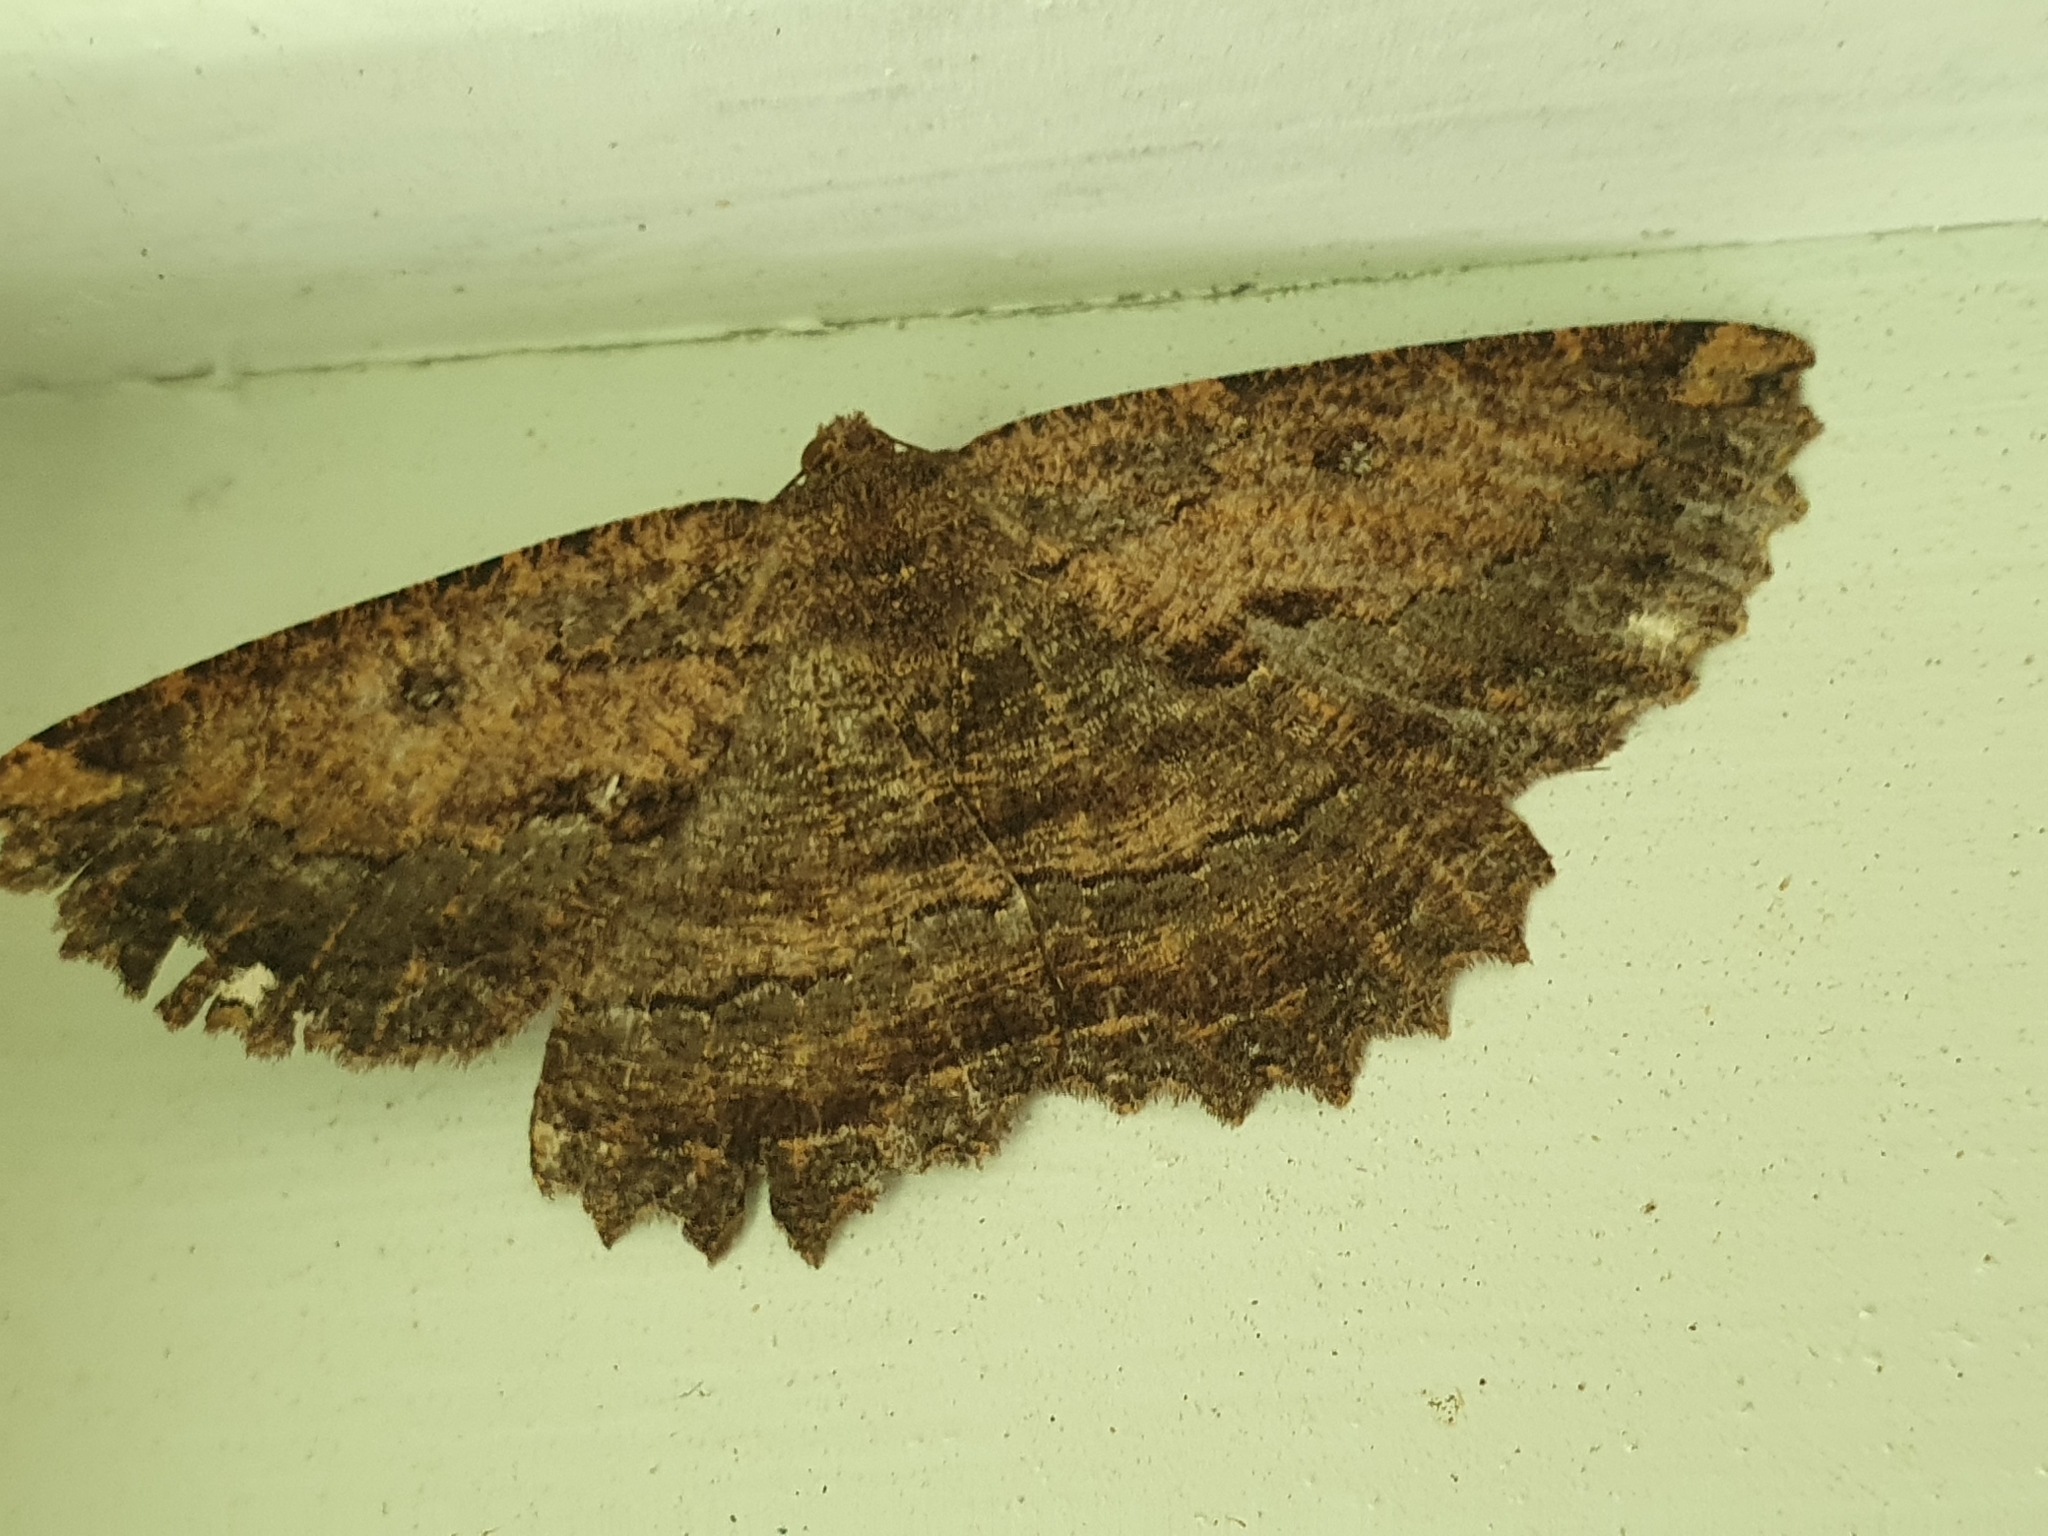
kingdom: Animalia
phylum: Arthropoda
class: Insecta
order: Lepidoptera
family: Geometridae
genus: Gellonia
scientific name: Gellonia dejectaria
